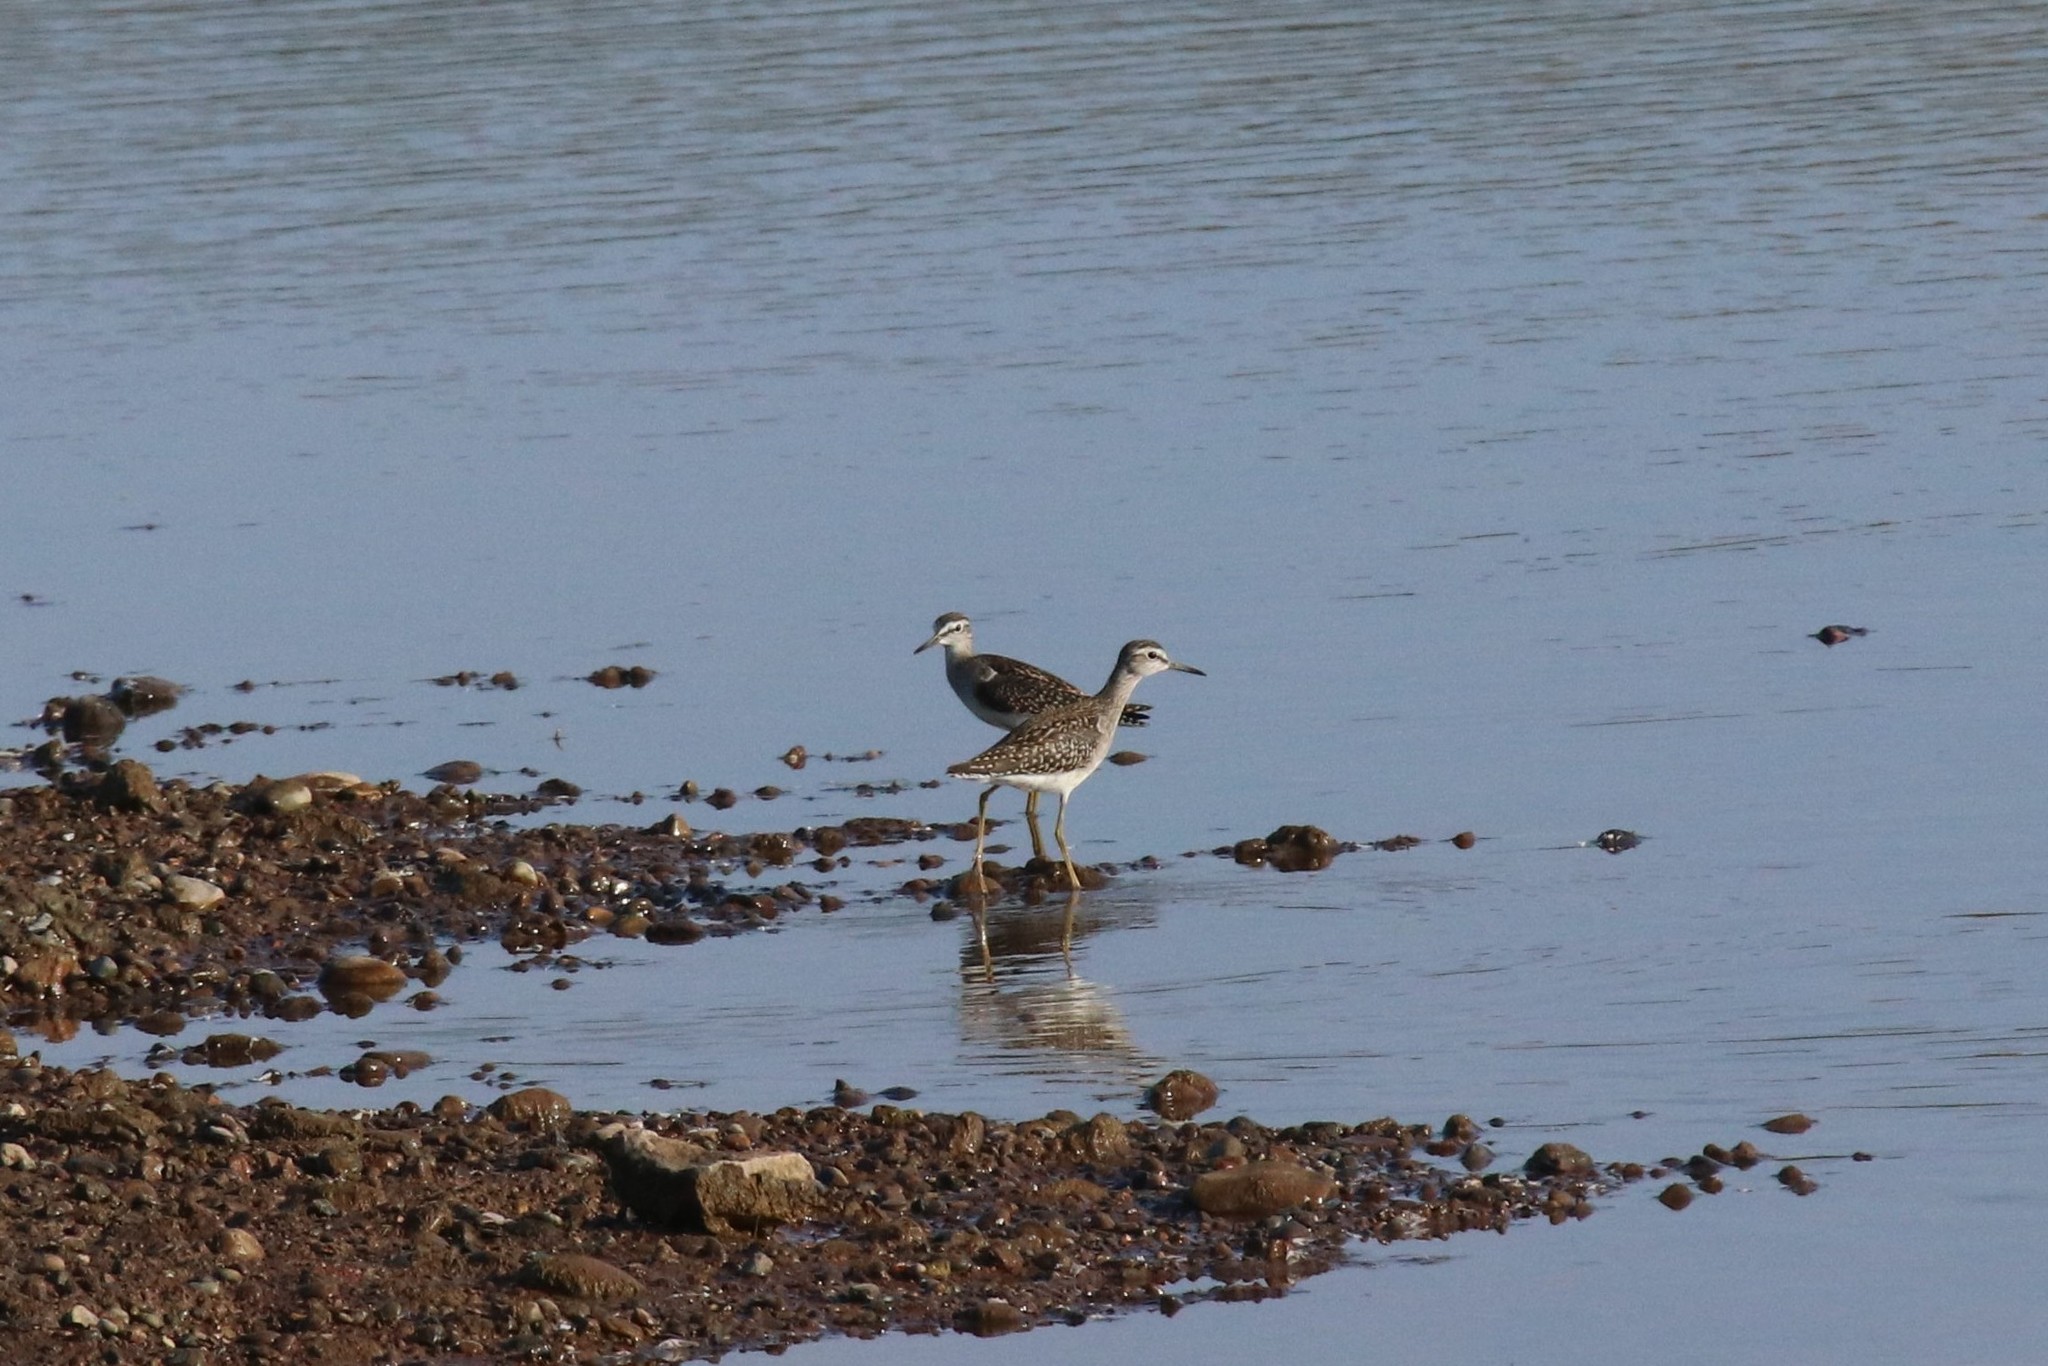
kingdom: Animalia
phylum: Chordata
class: Aves
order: Charadriiformes
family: Scolopacidae
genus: Tringa
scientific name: Tringa glareola
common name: Wood sandpiper
